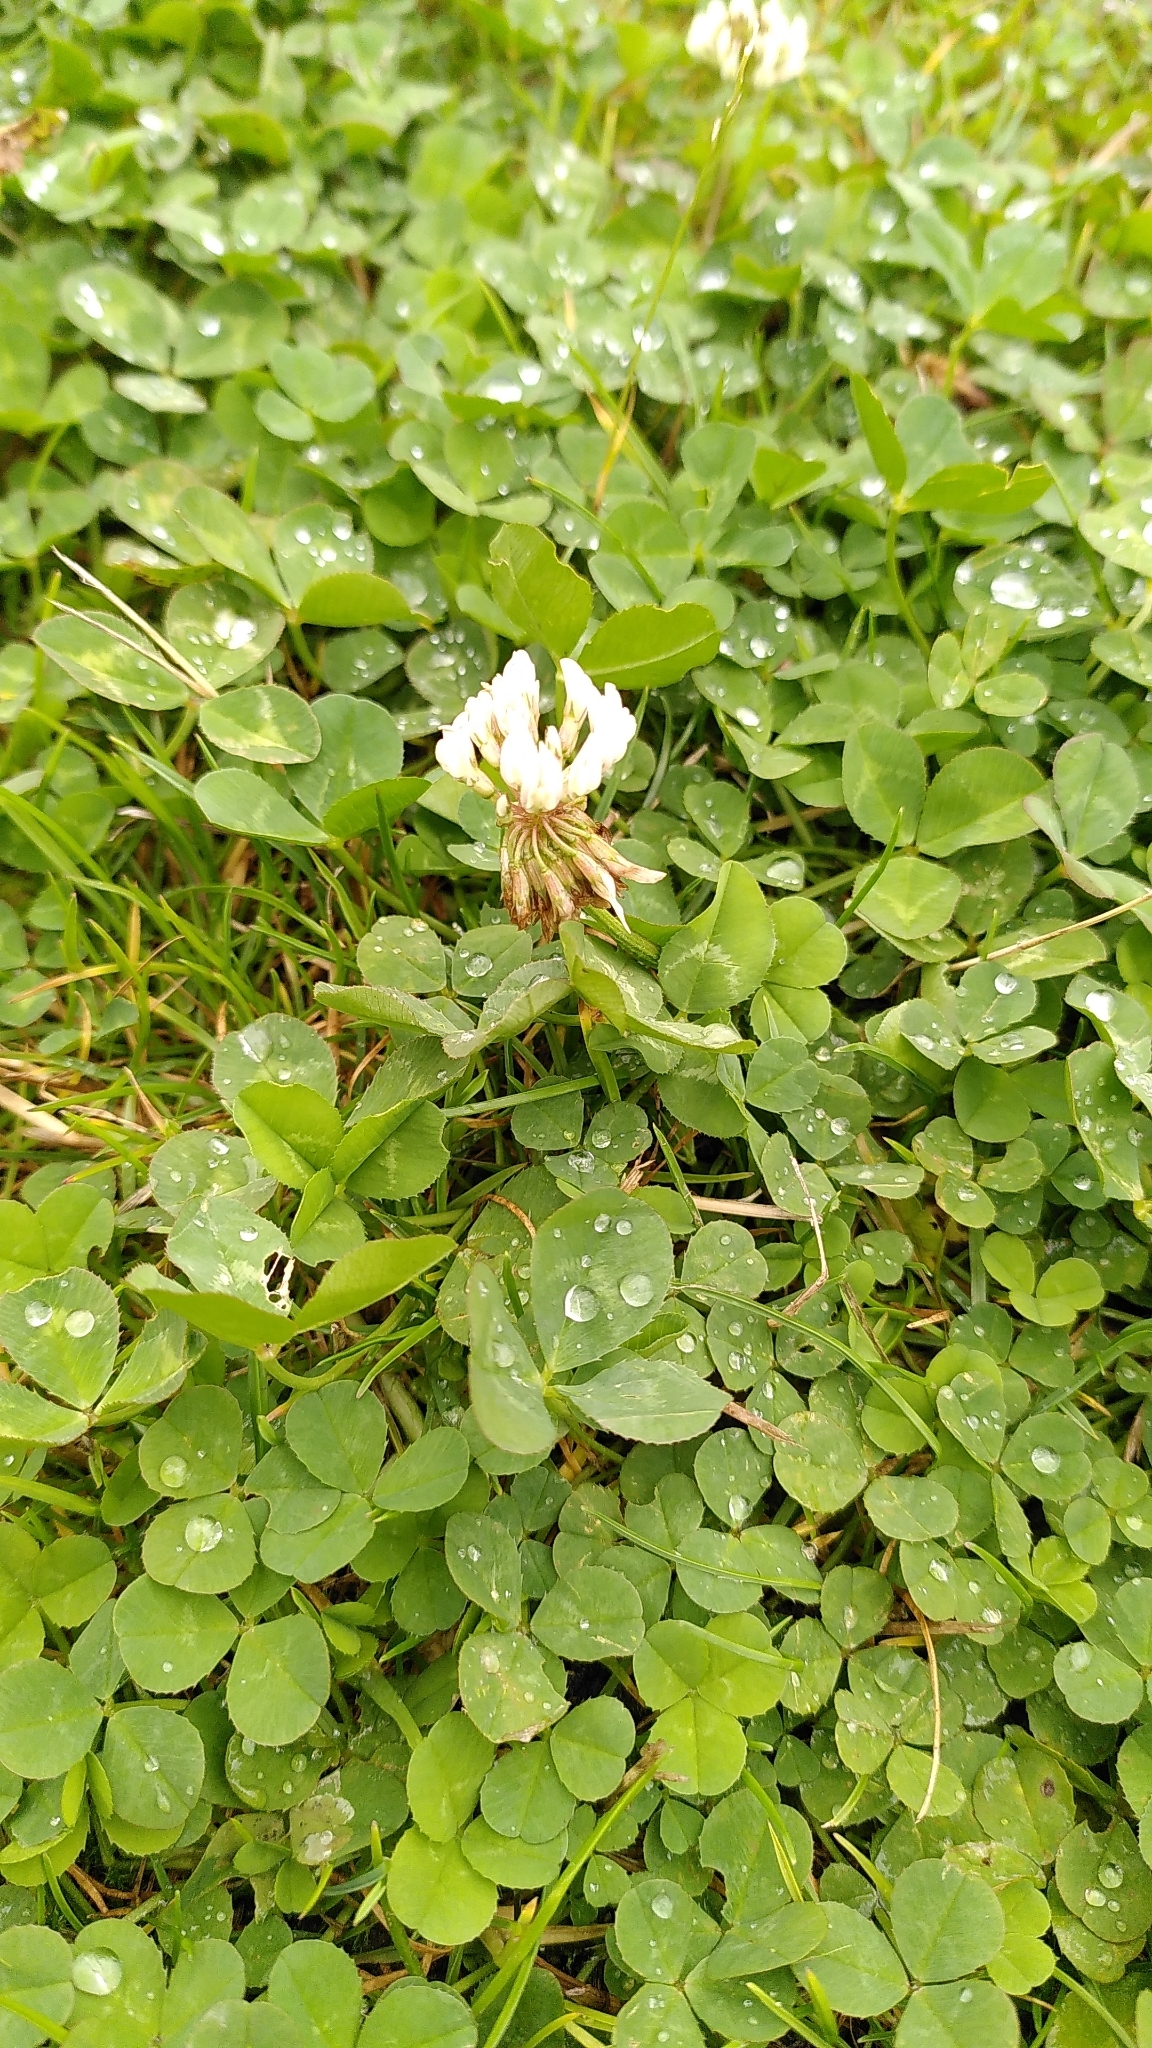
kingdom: Plantae
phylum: Tracheophyta
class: Magnoliopsida
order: Fabales
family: Fabaceae
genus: Trifolium
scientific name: Trifolium repens
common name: White clover
